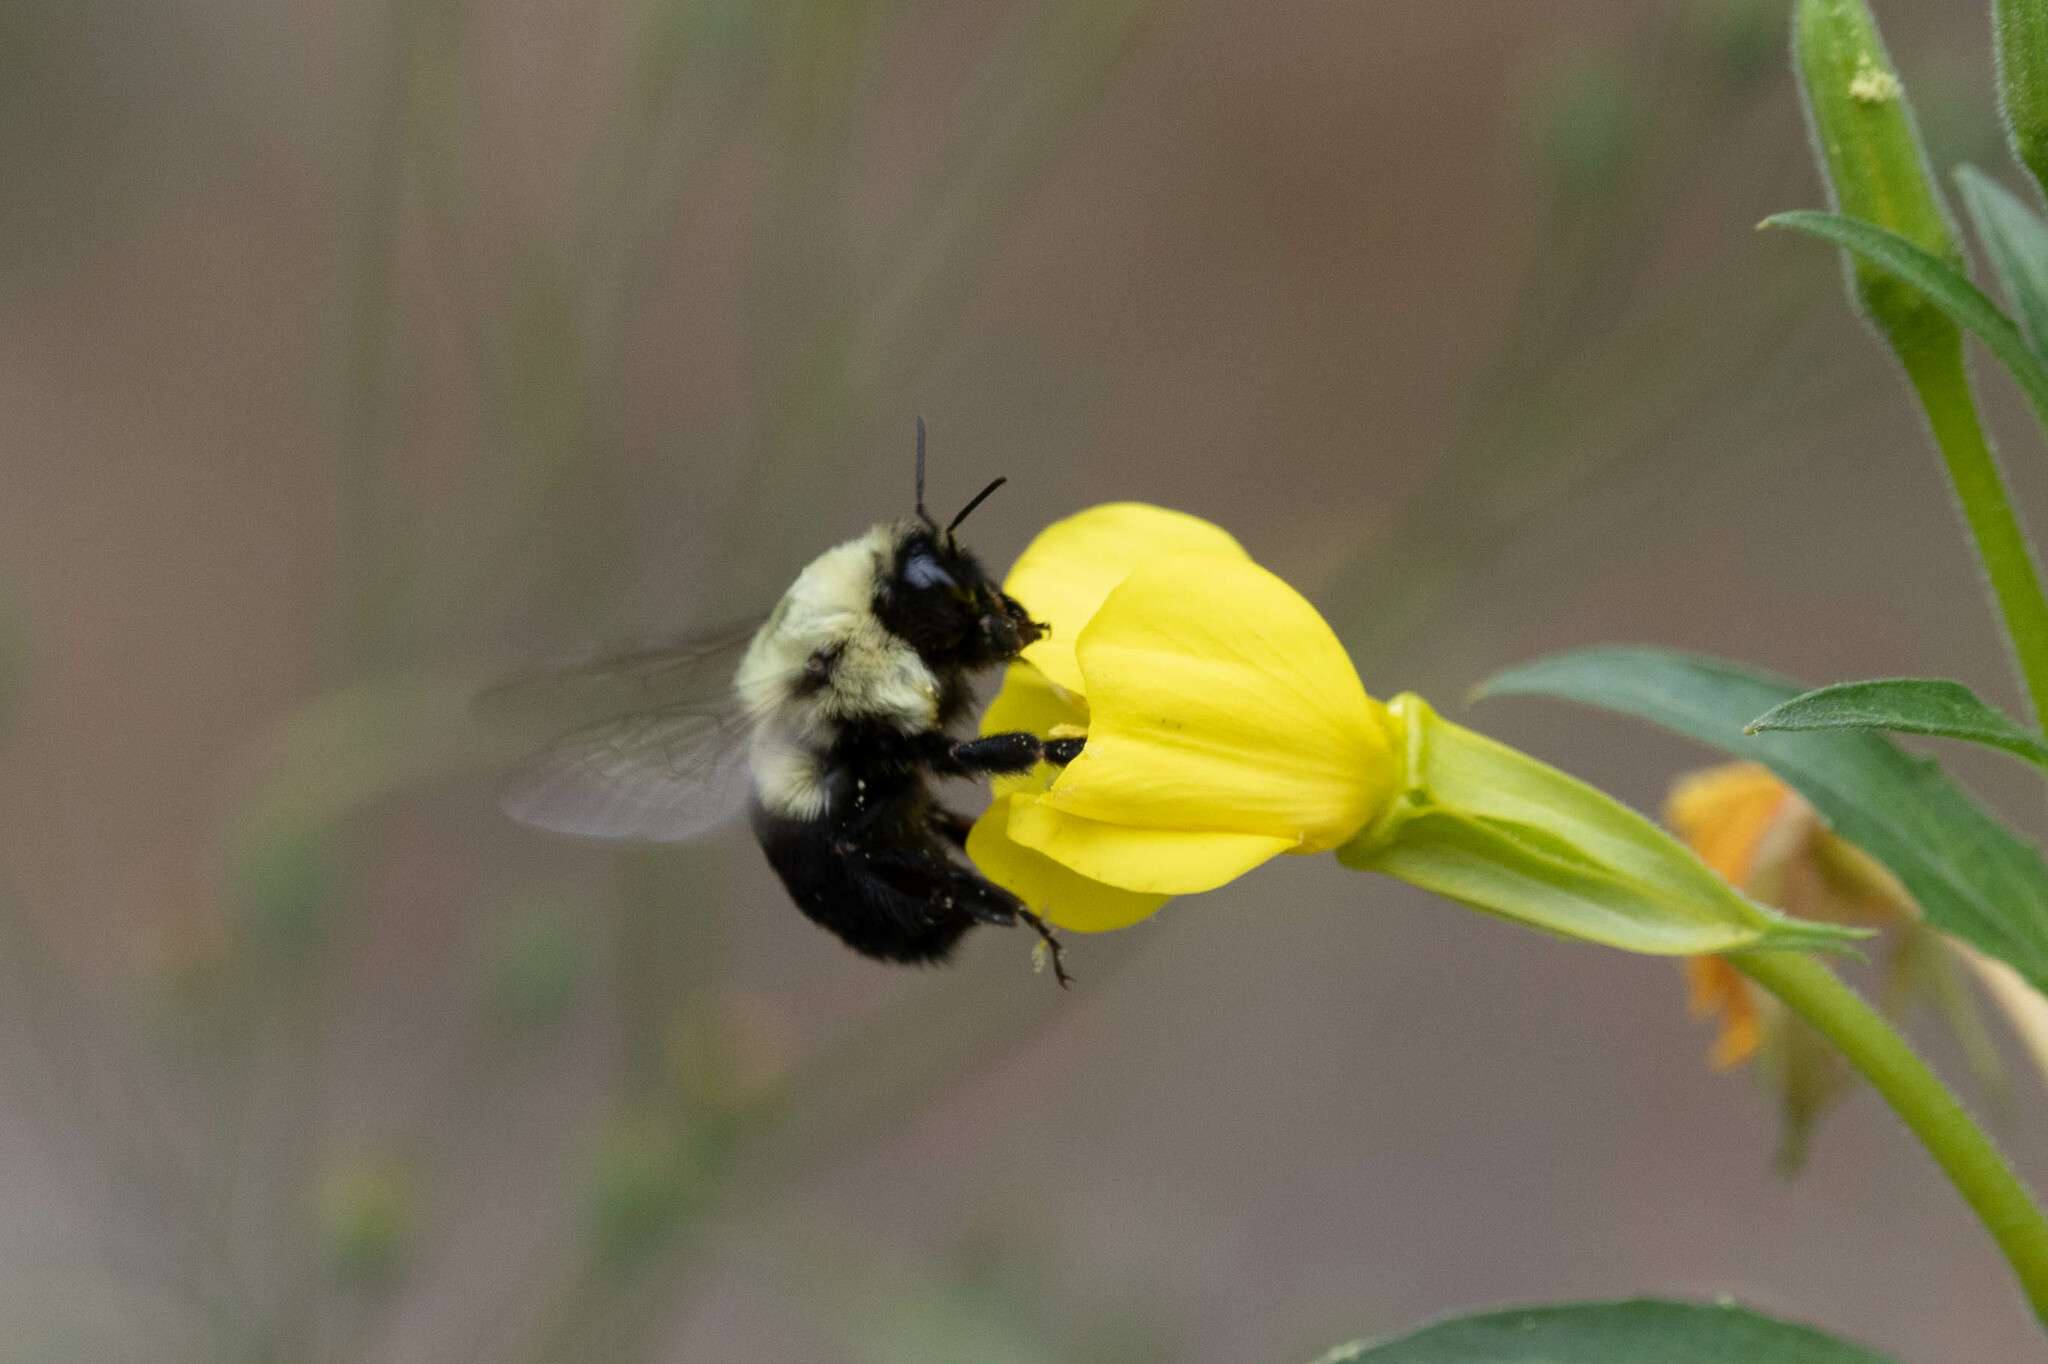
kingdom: Animalia
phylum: Arthropoda
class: Insecta
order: Hymenoptera
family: Apidae
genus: Bombus
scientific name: Bombus impatiens
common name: Common eastern bumble bee
